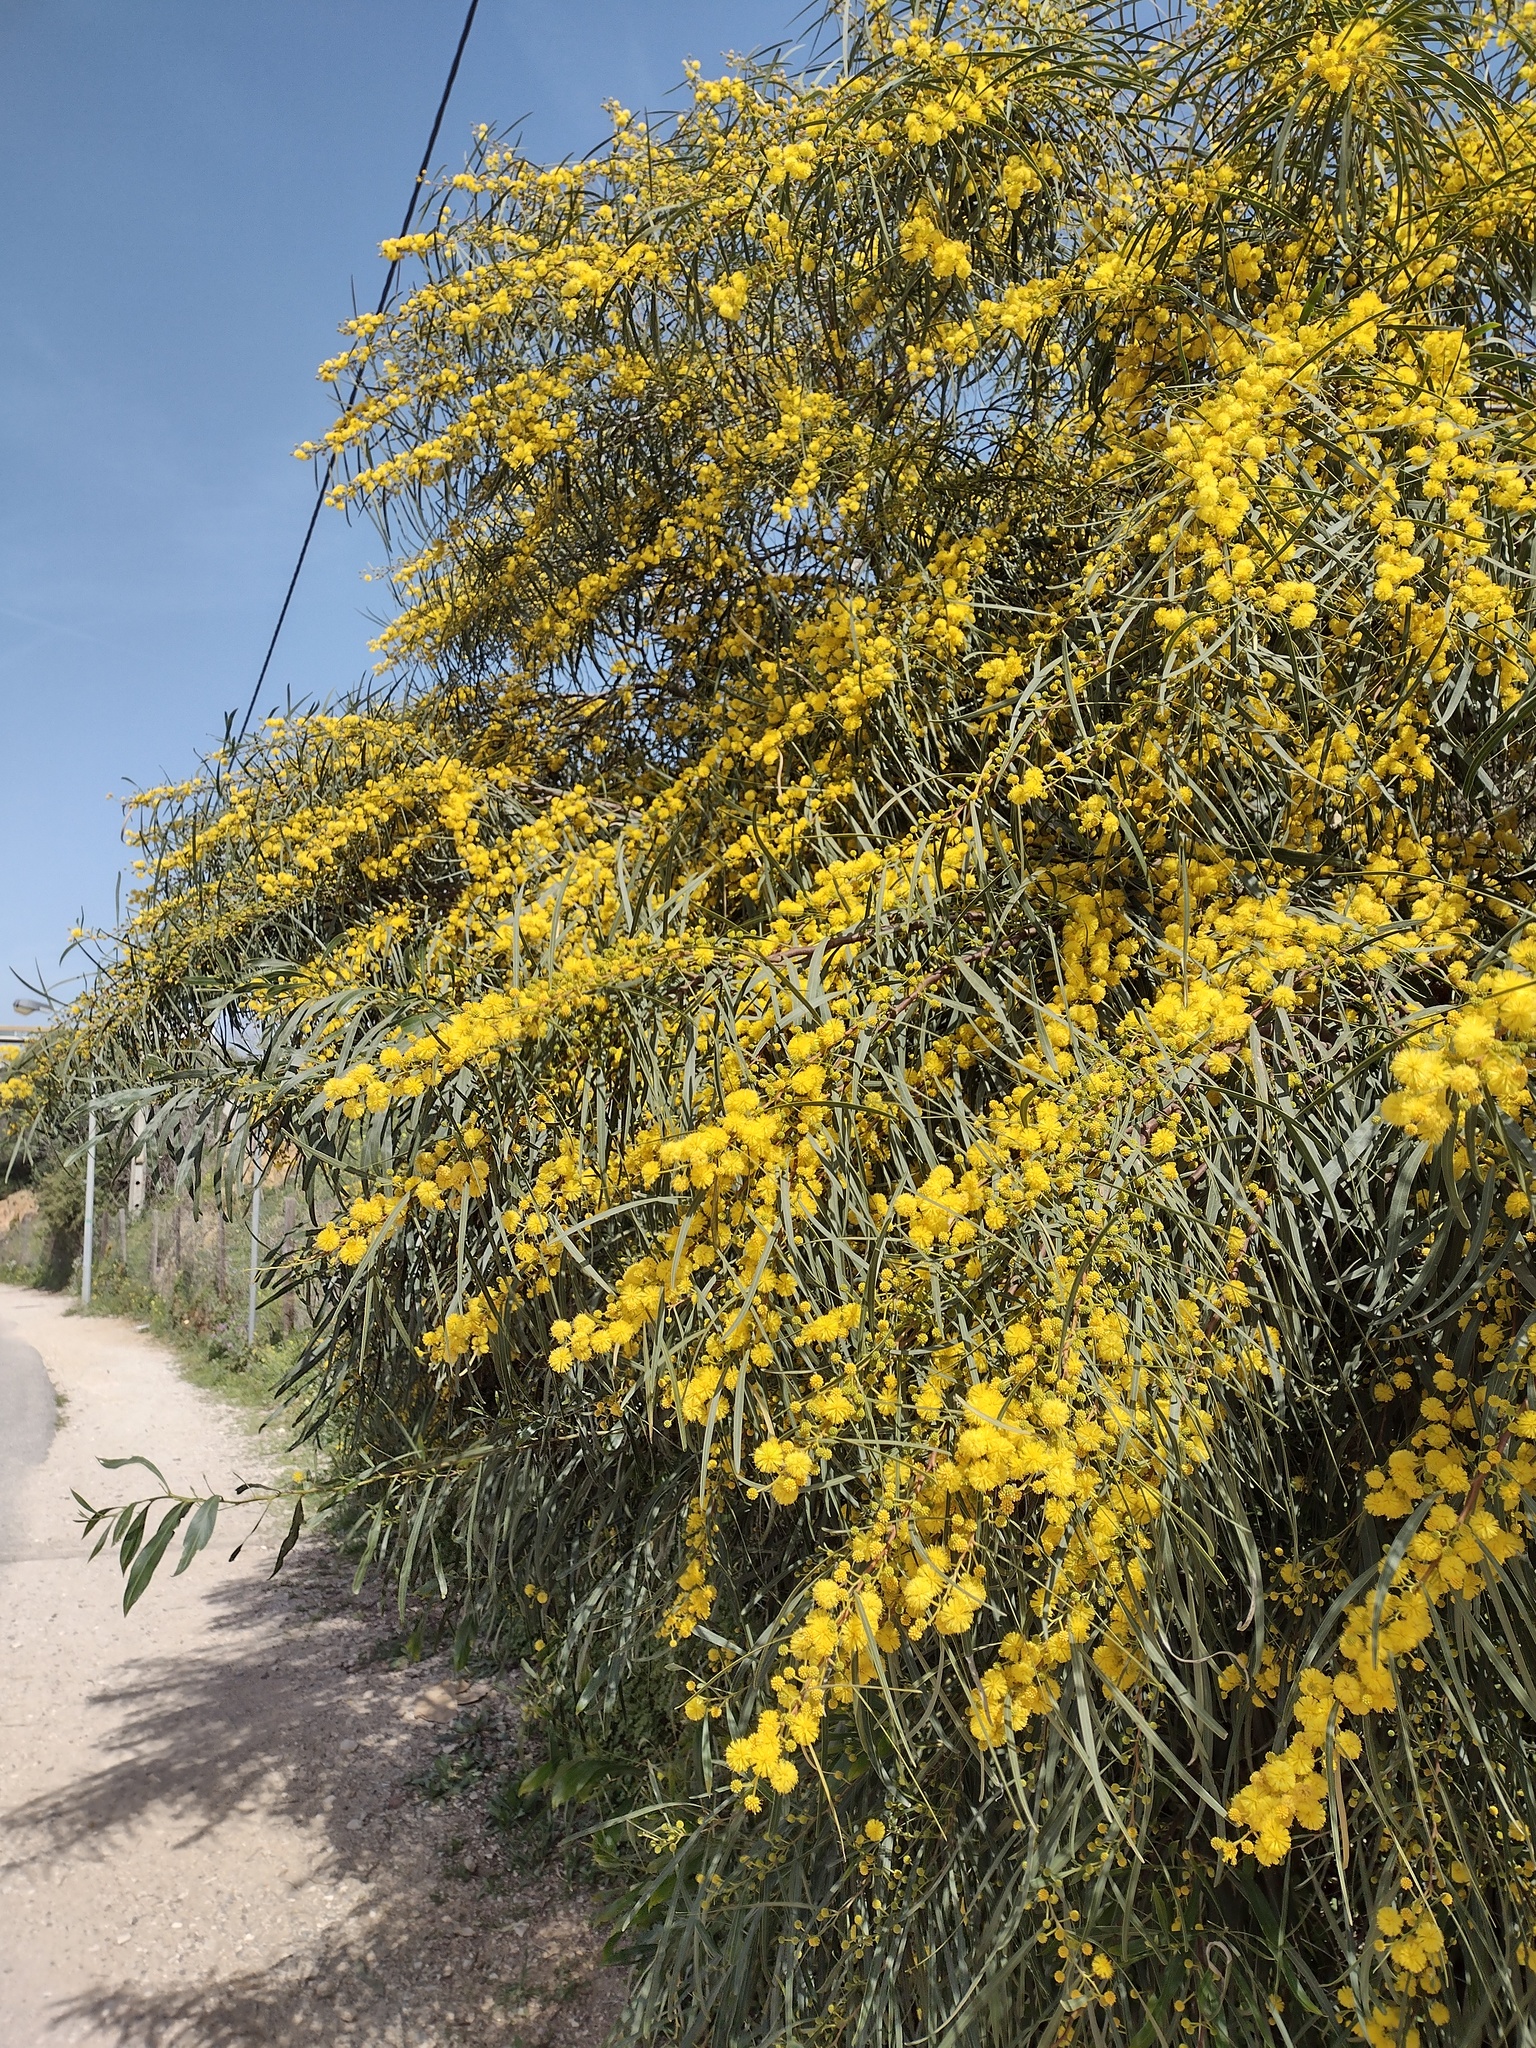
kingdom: Plantae
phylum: Tracheophyta
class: Magnoliopsida
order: Fabales
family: Fabaceae
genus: Acacia
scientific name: Acacia saligna
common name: Orange wattle
